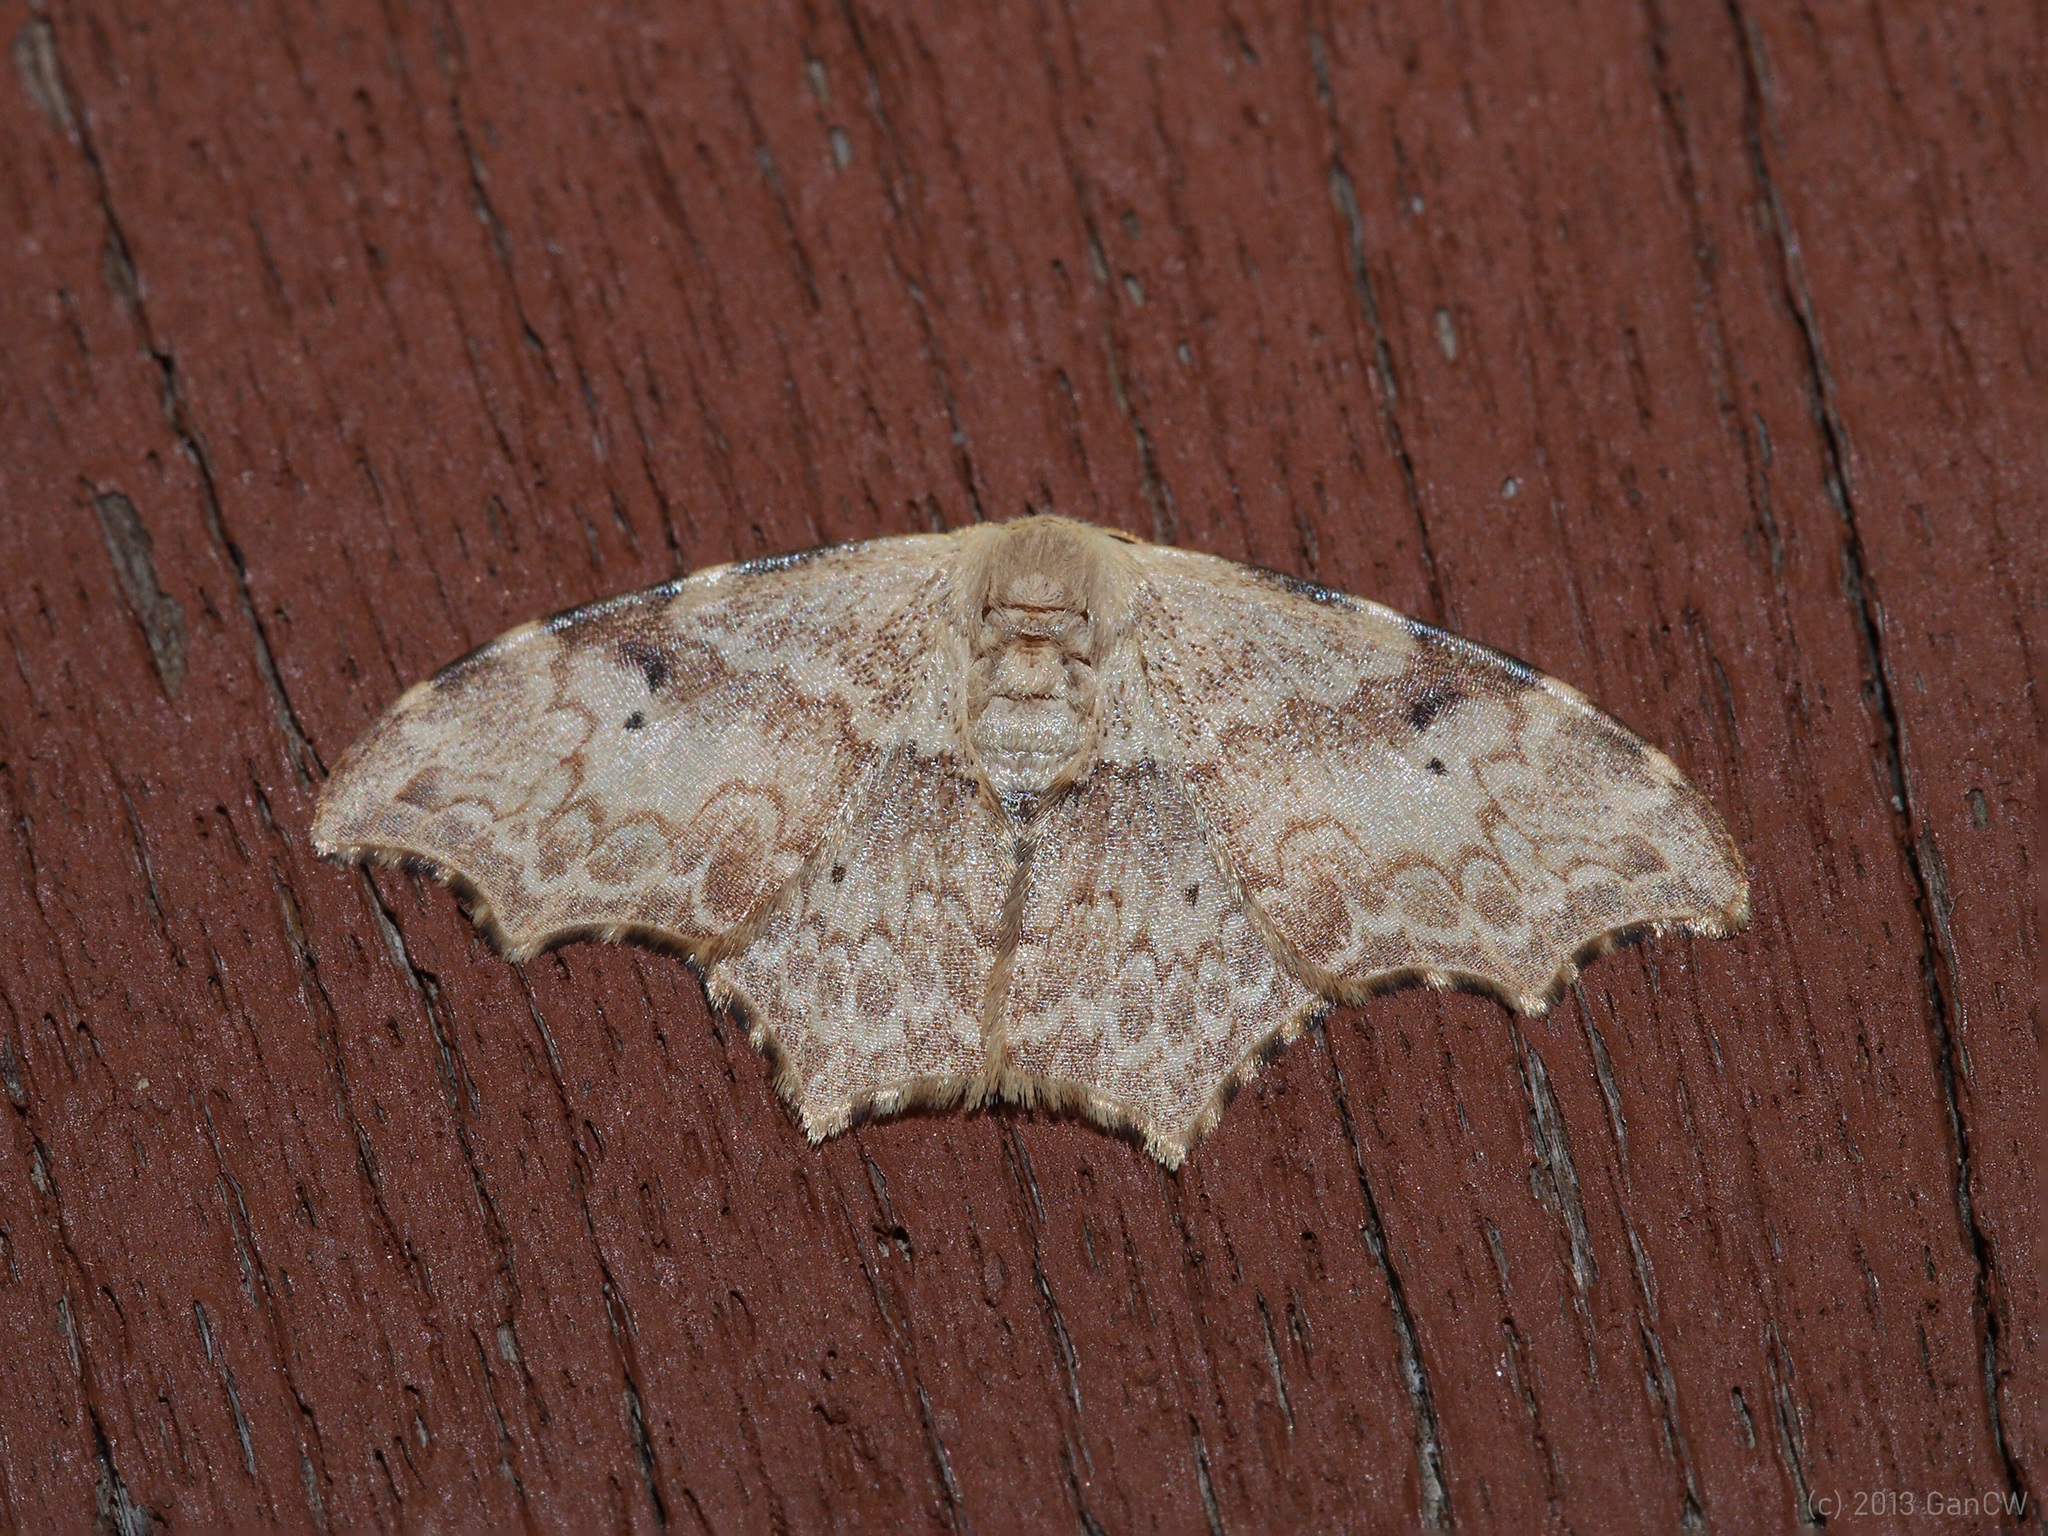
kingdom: Animalia
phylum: Arthropoda
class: Insecta
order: Lepidoptera
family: Drepanidae
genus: Strepsigonia
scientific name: Strepsigonia affinis
